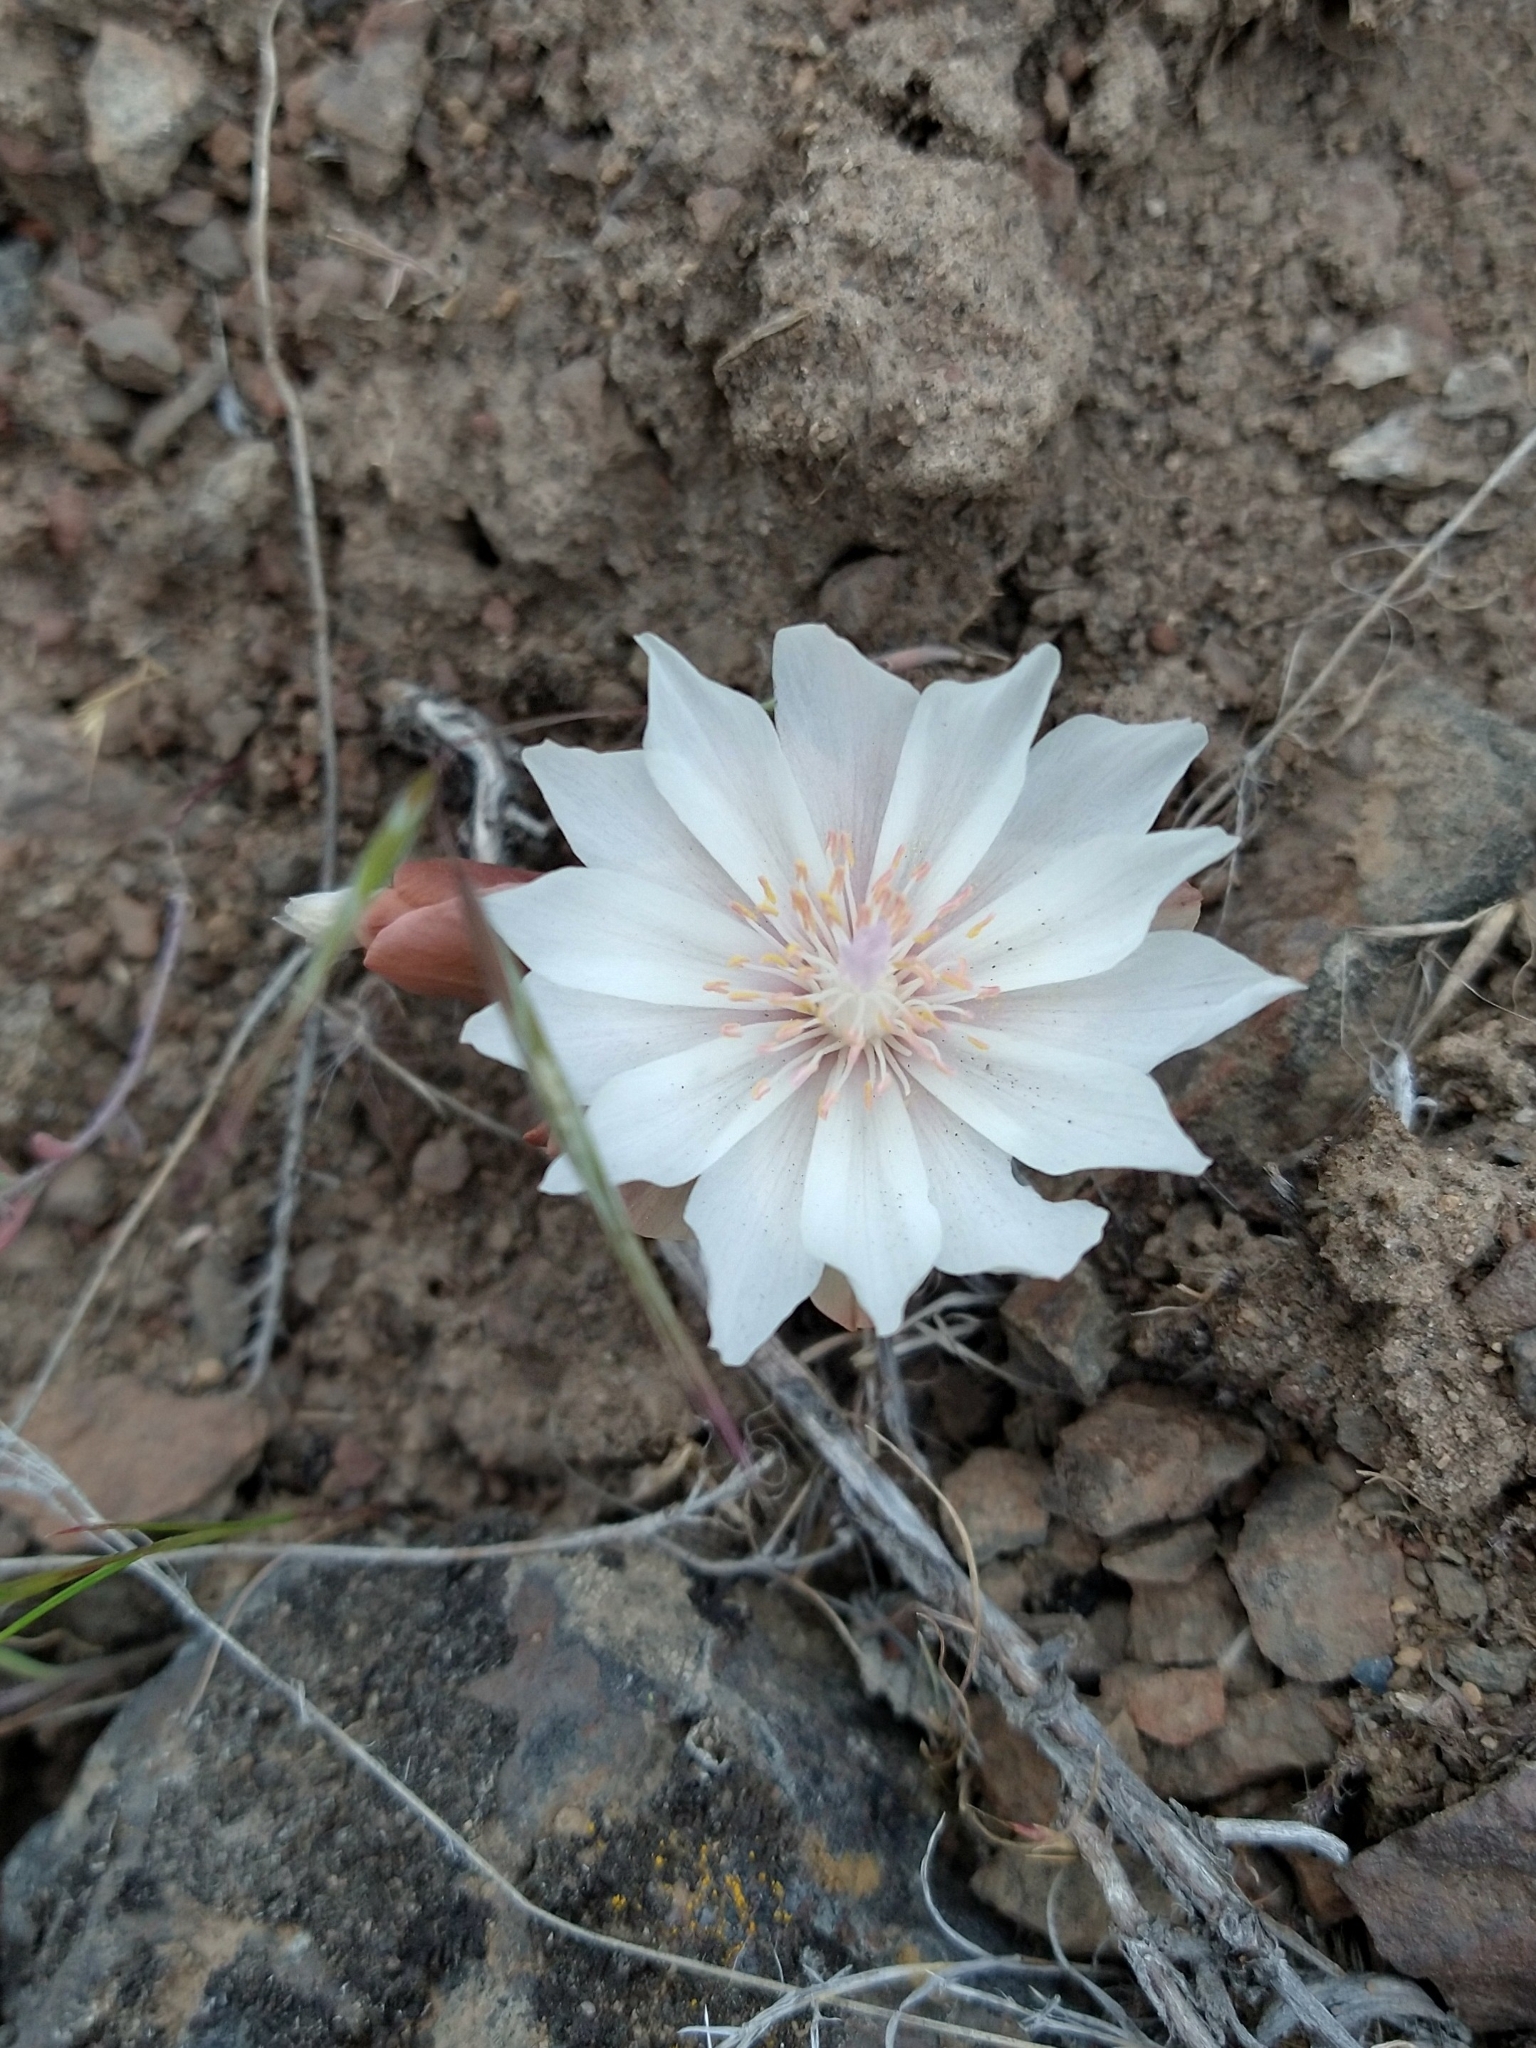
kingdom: Plantae
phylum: Tracheophyta
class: Magnoliopsida
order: Caryophyllales
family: Montiaceae
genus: Lewisia
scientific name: Lewisia rediviva
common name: Bitter-root
